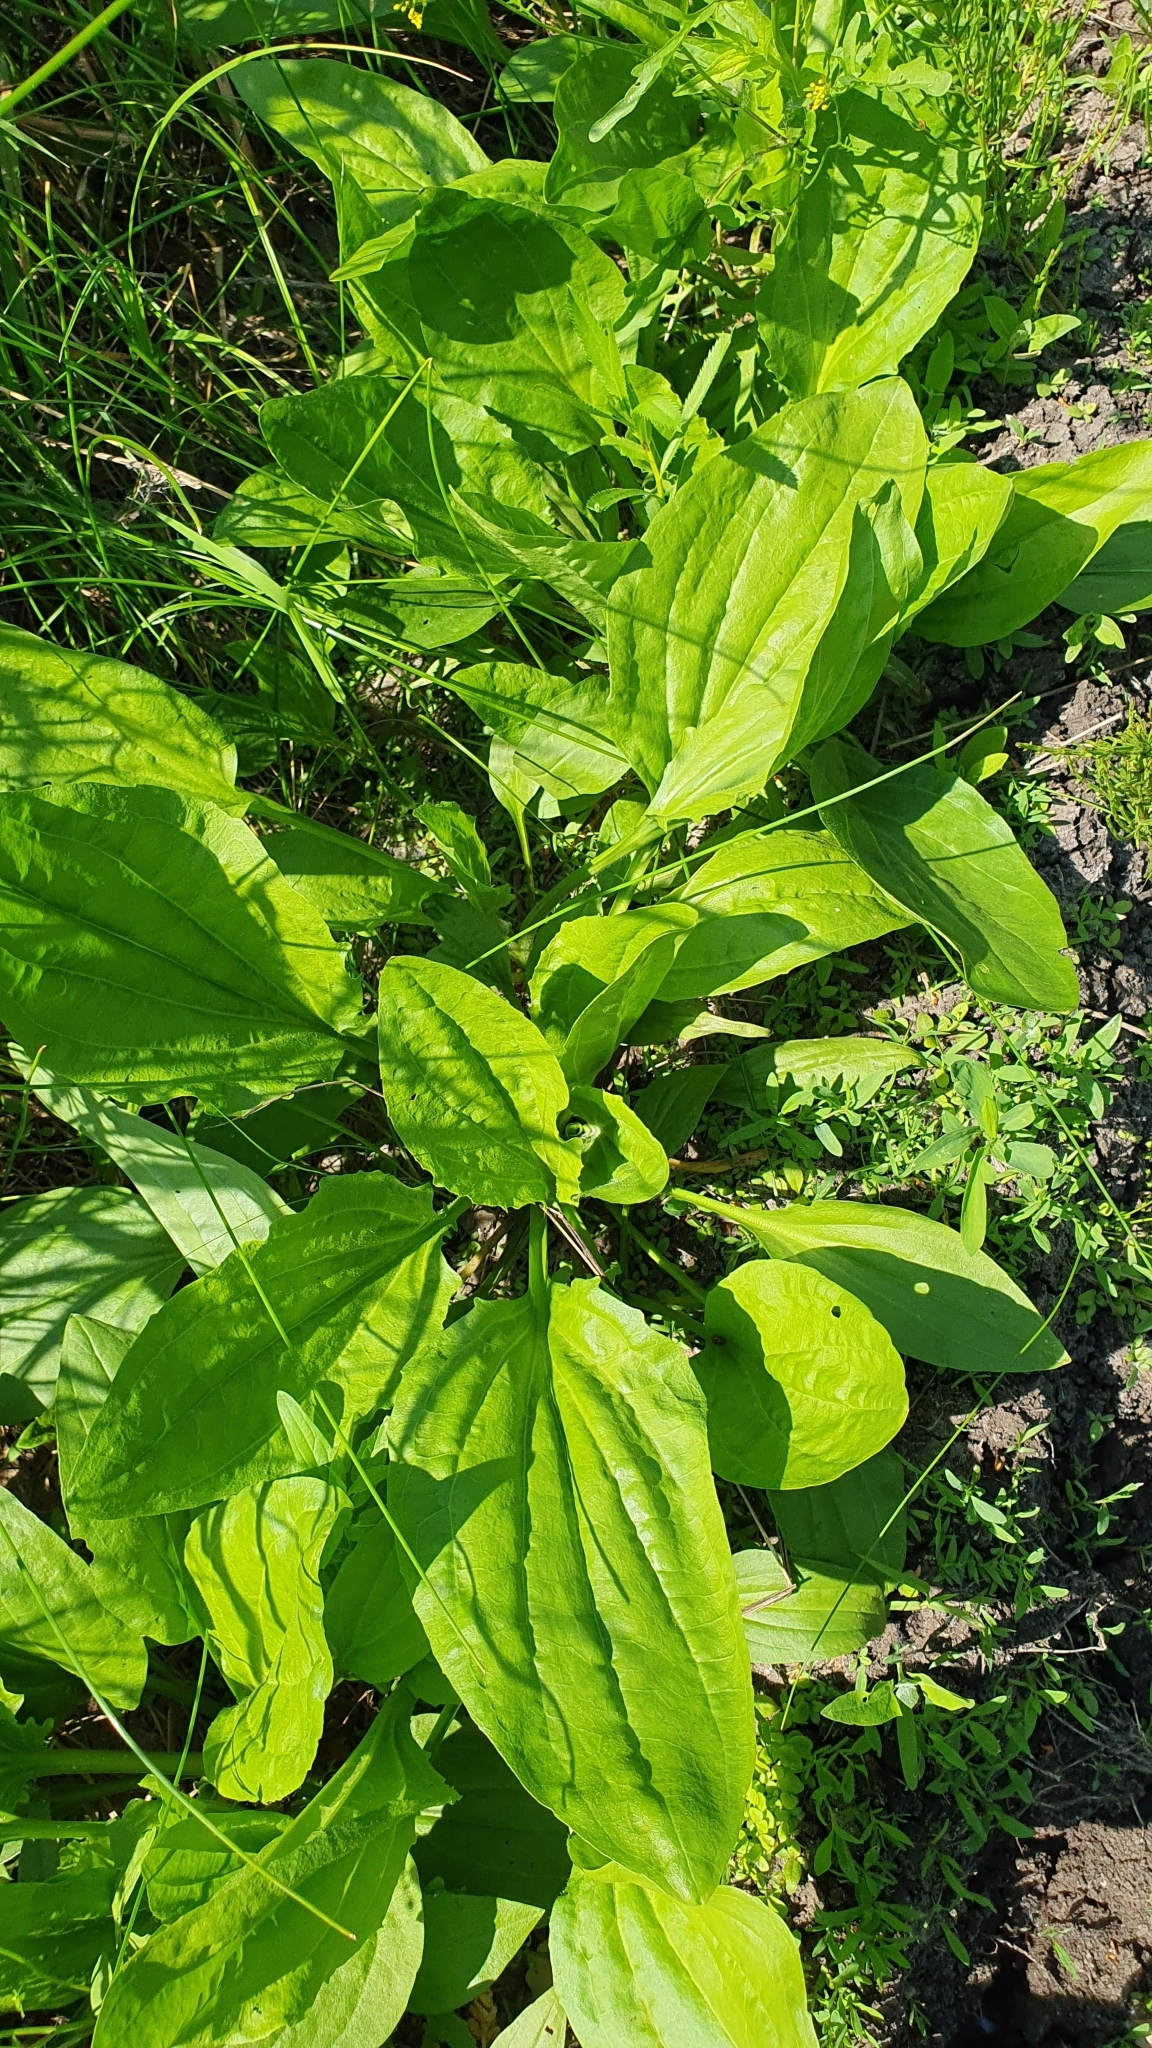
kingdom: Plantae
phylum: Tracheophyta
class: Magnoliopsida
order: Lamiales
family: Plantaginaceae
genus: Plantago
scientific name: Plantago major
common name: Common plantain
